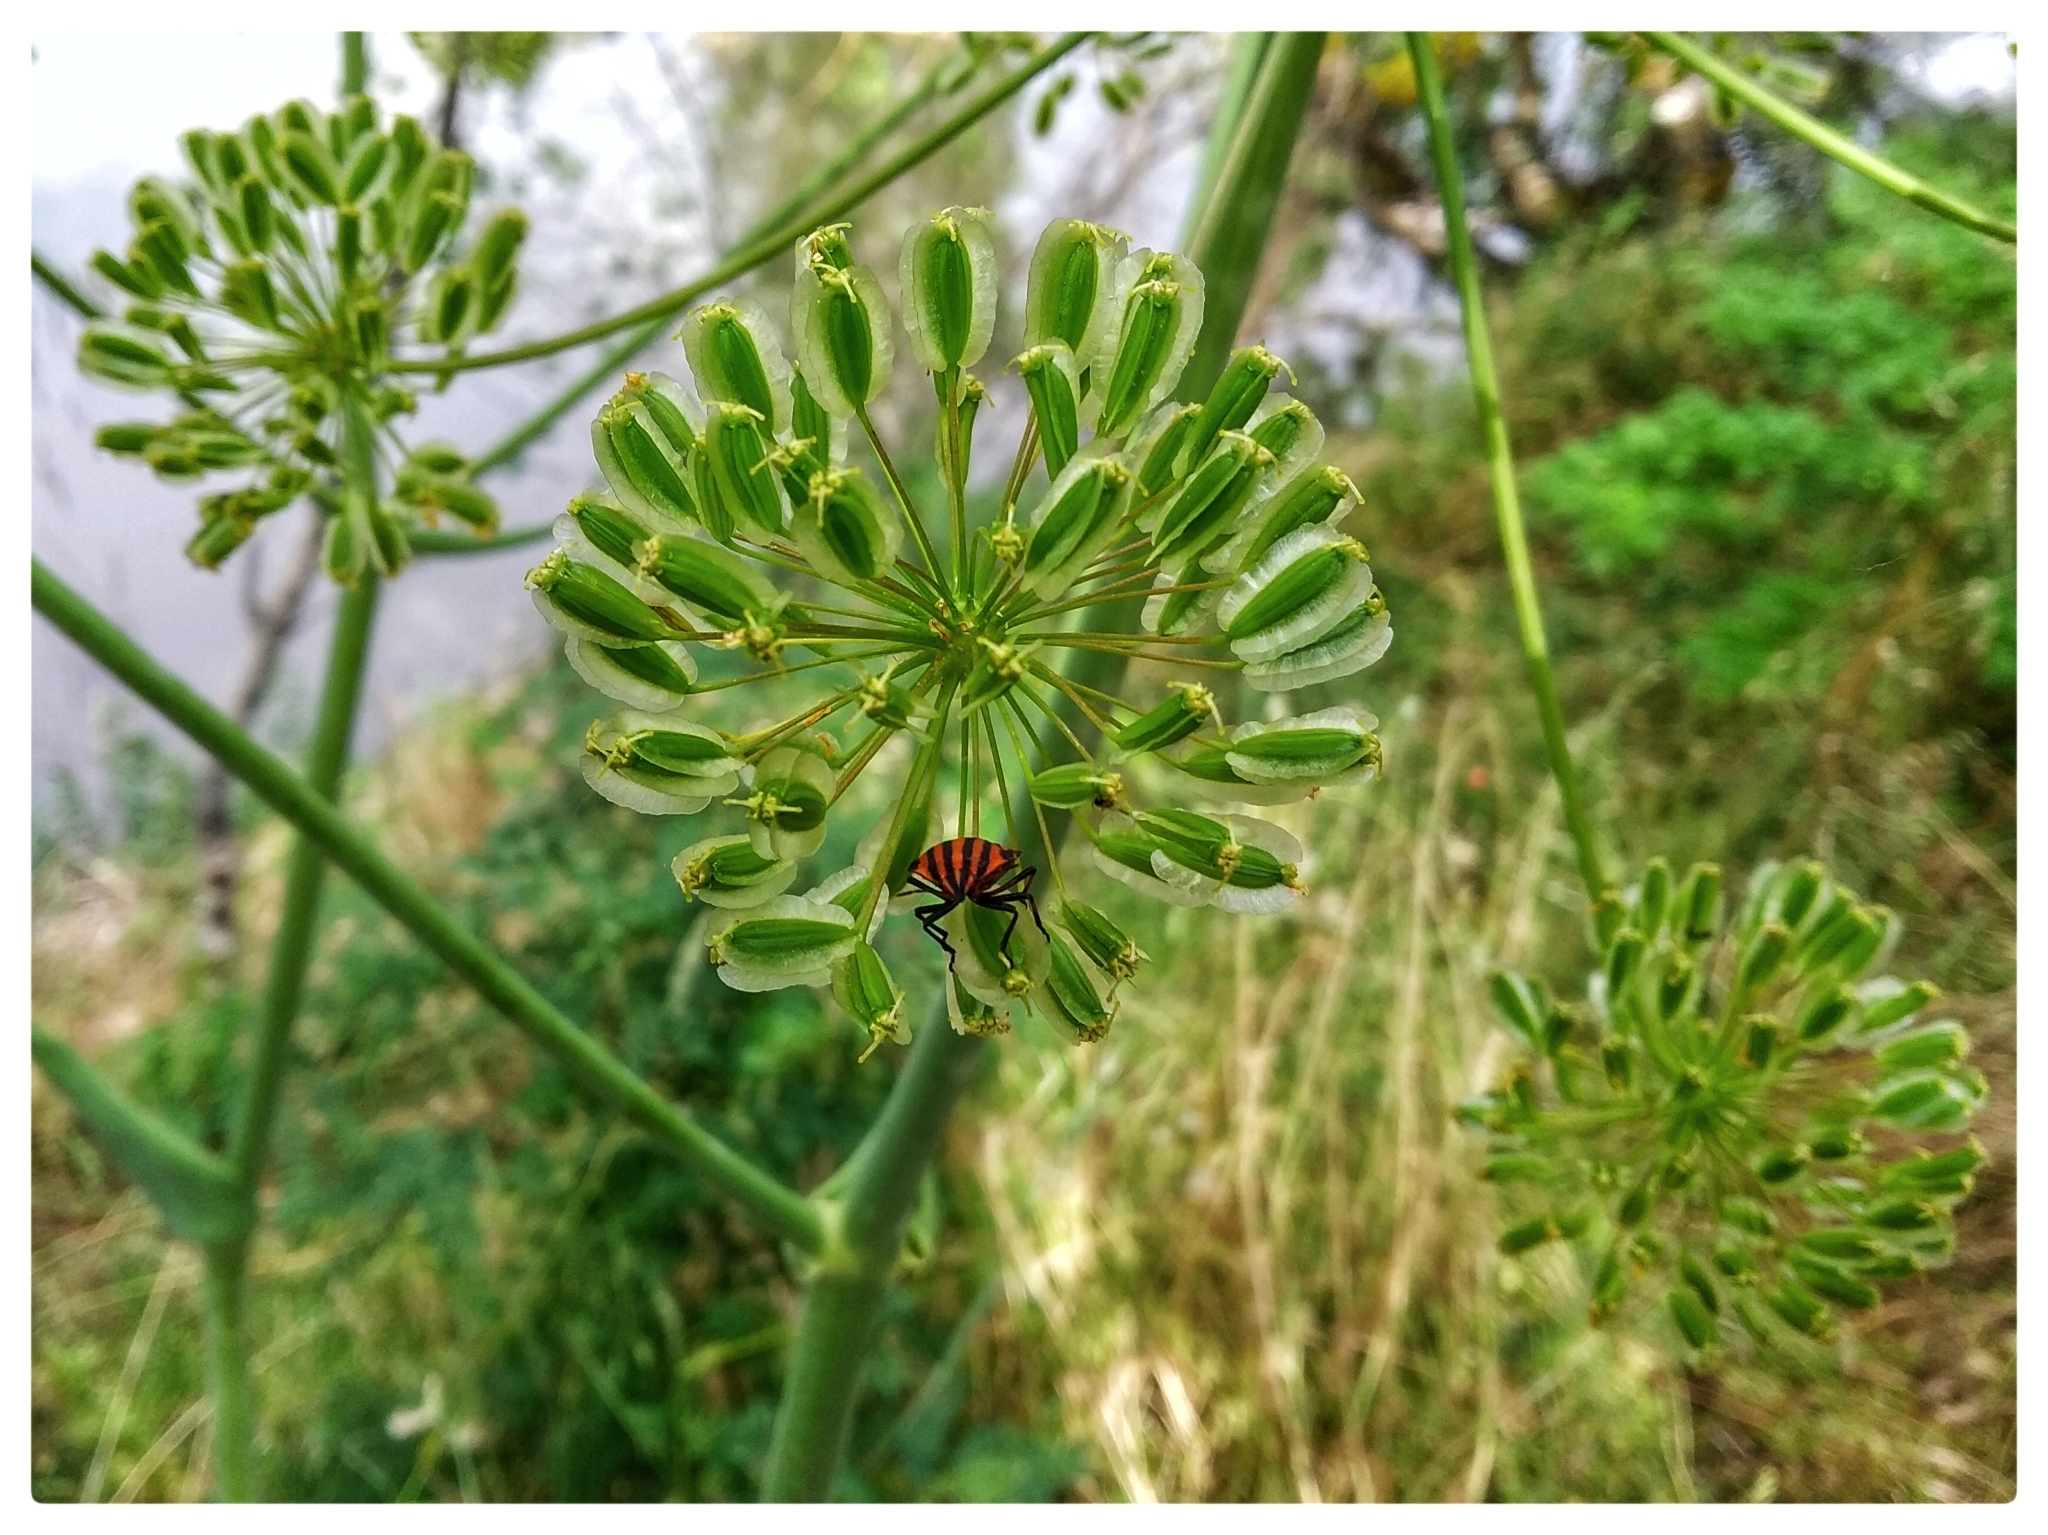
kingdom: Animalia
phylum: Arthropoda
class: Insecta
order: Hemiptera
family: Pentatomidae
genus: Graphosoma
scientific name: Graphosoma italicum
